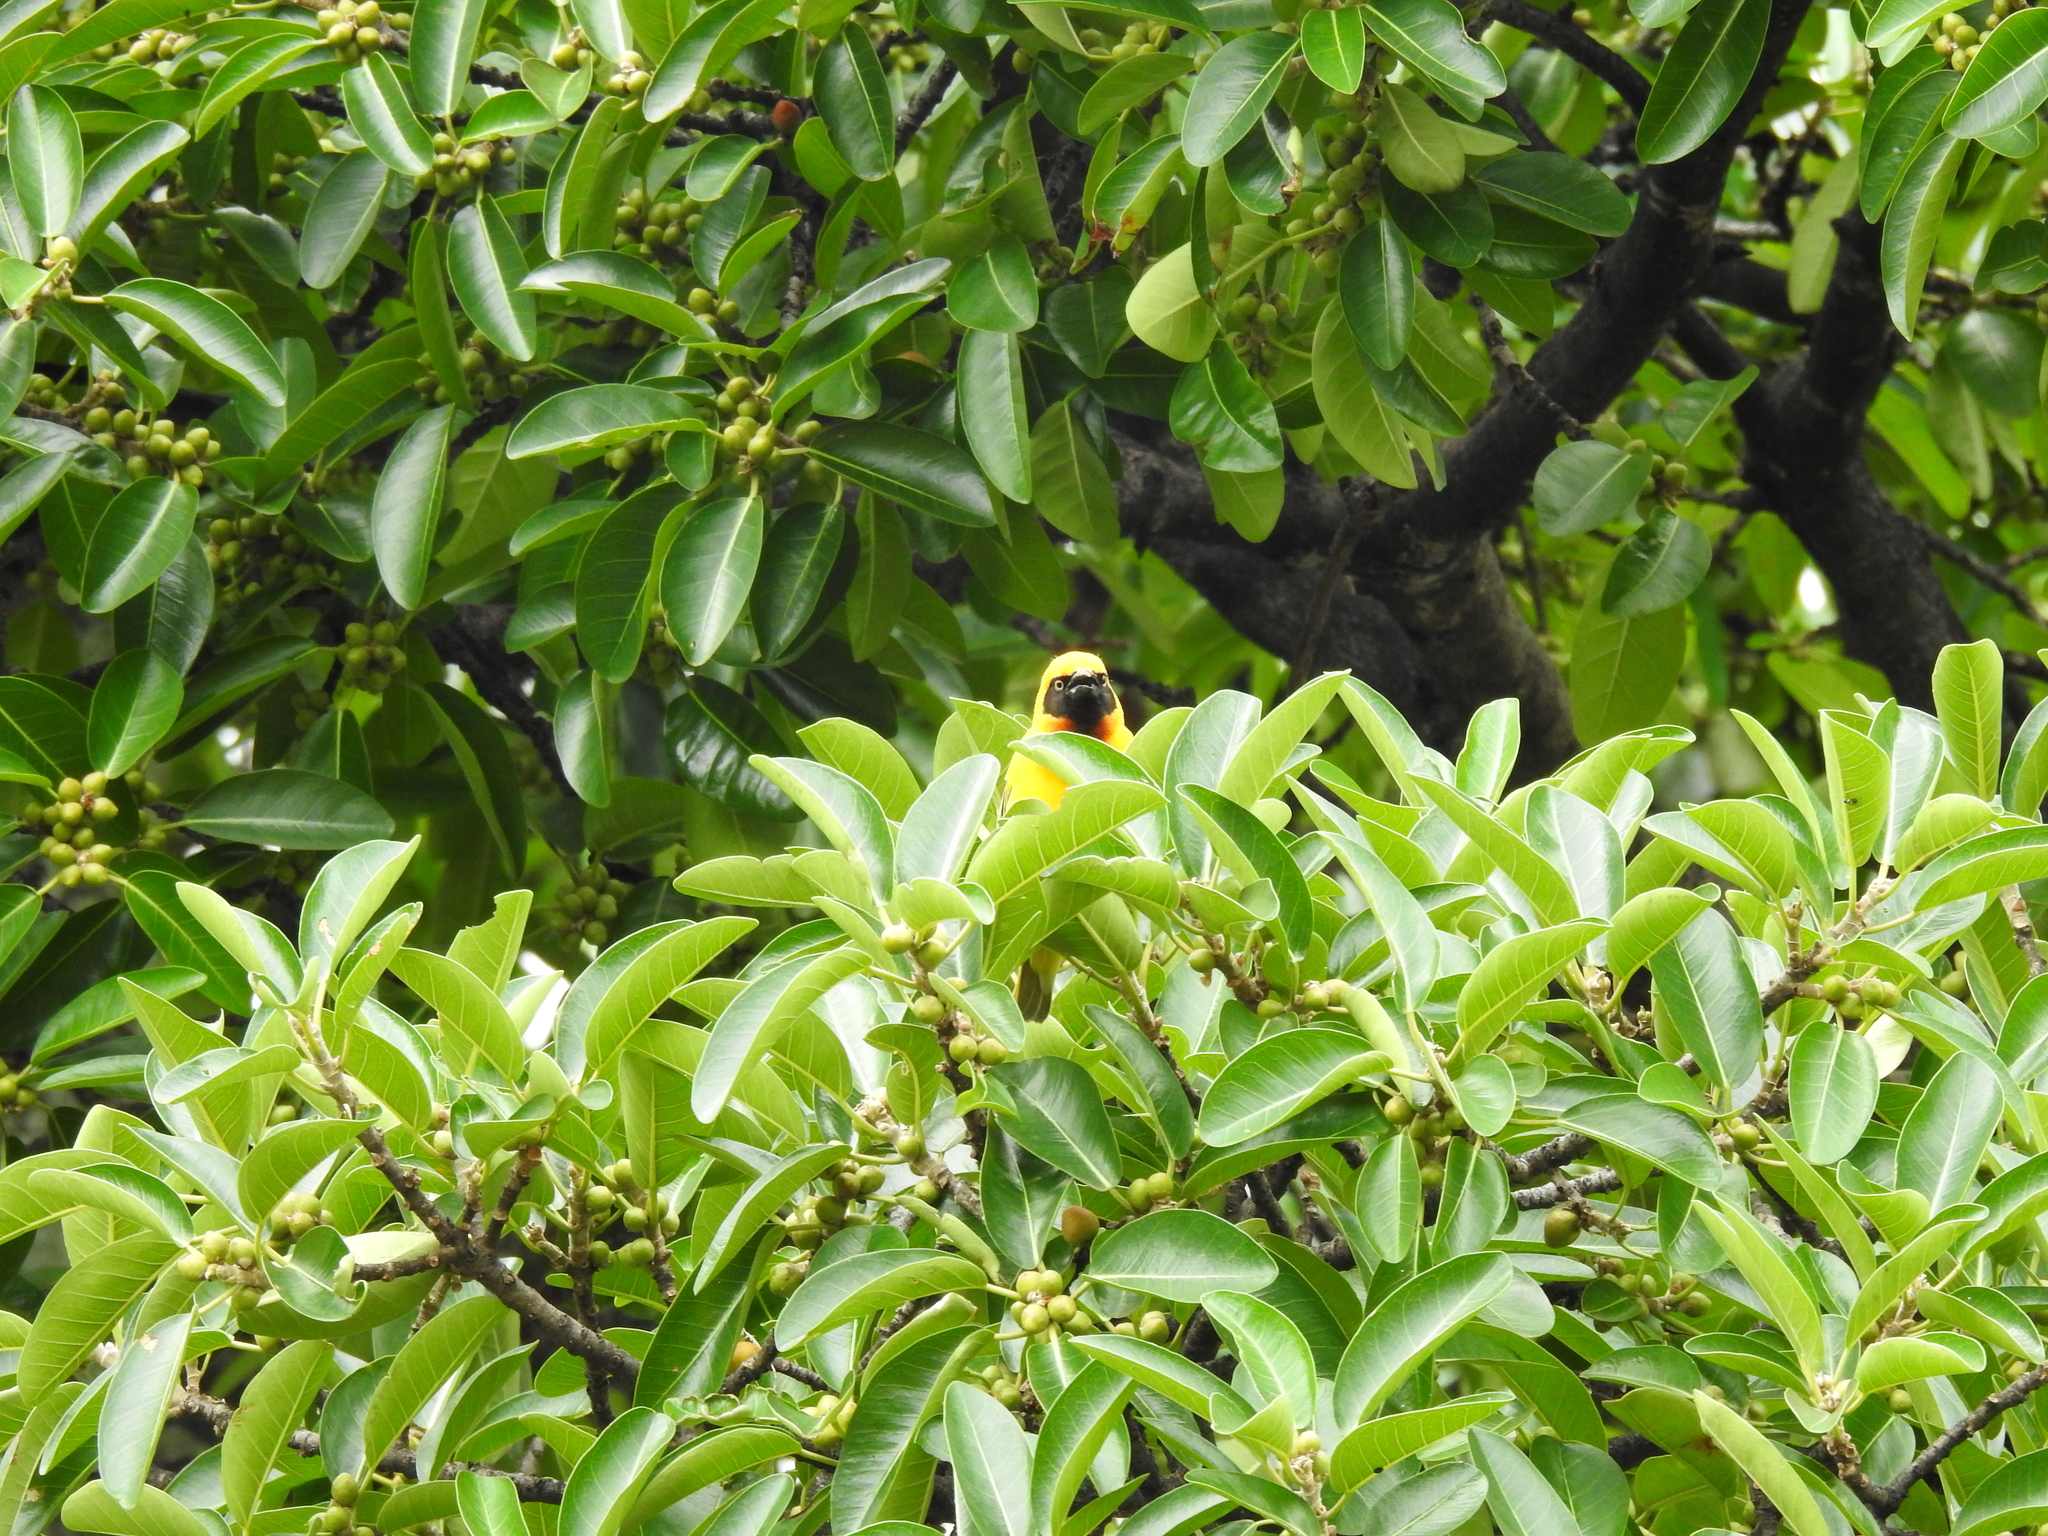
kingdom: Animalia
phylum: Chordata
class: Aves
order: Passeriformes
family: Ploceidae
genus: Ploceus
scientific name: Ploceus spekei
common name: Speke's weaver
